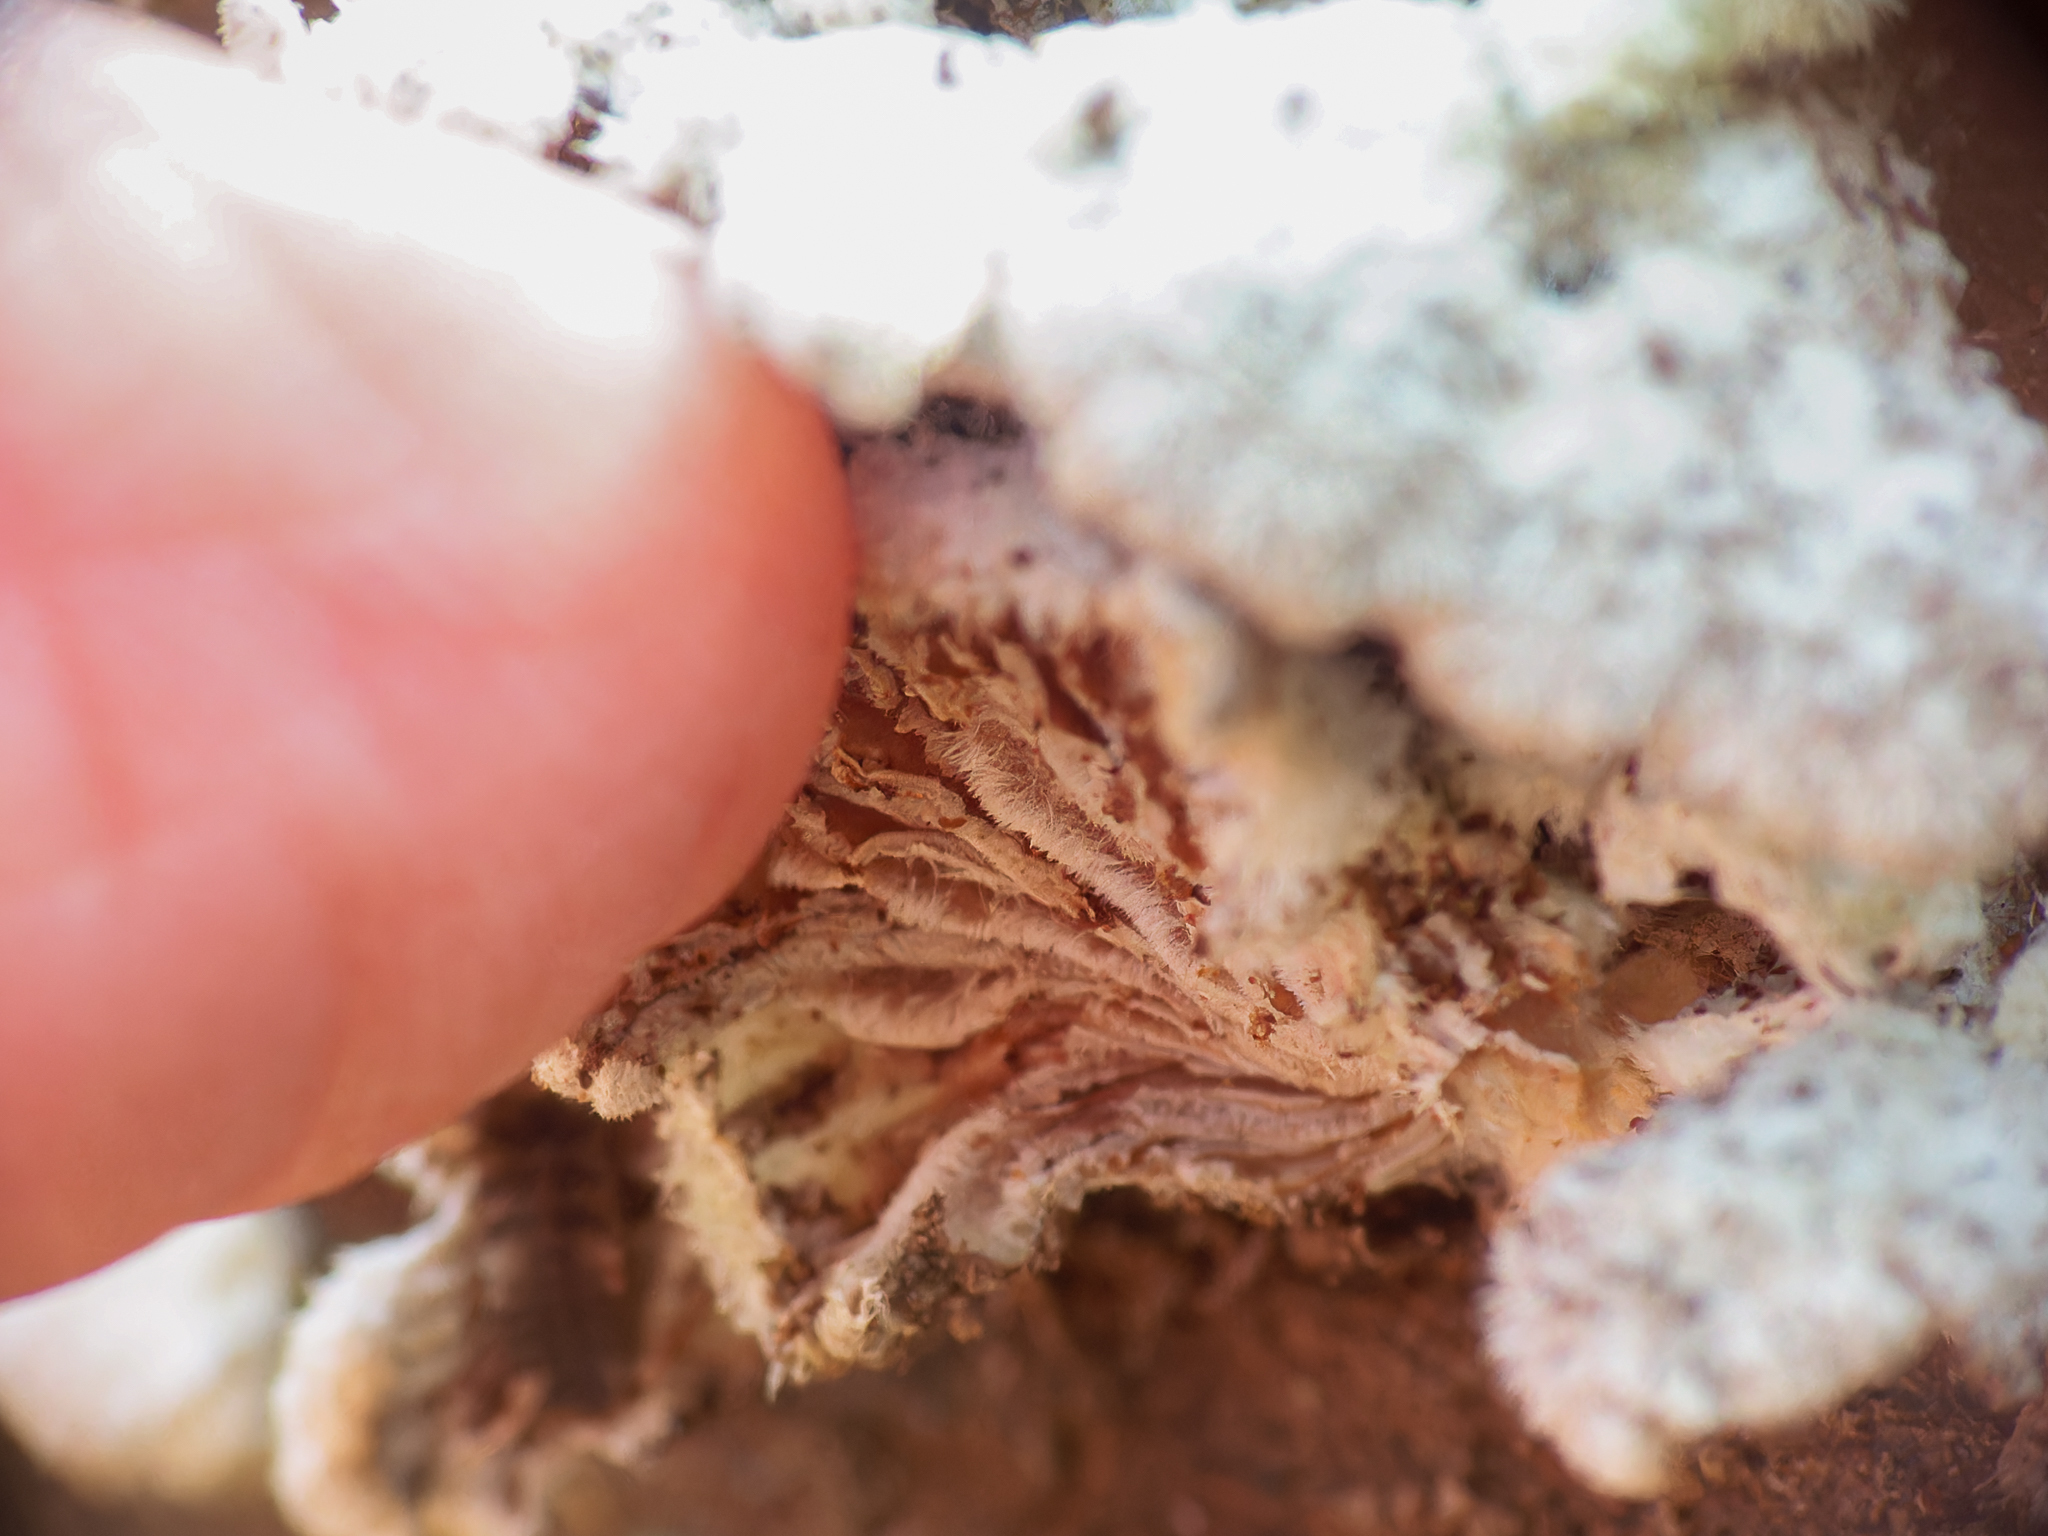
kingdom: Fungi
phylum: Basidiomycota
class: Agaricomycetes
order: Agaricales
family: Schizophyllaceae
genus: Schizophyllum
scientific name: Schizophyllum commune
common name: Common porecrust
